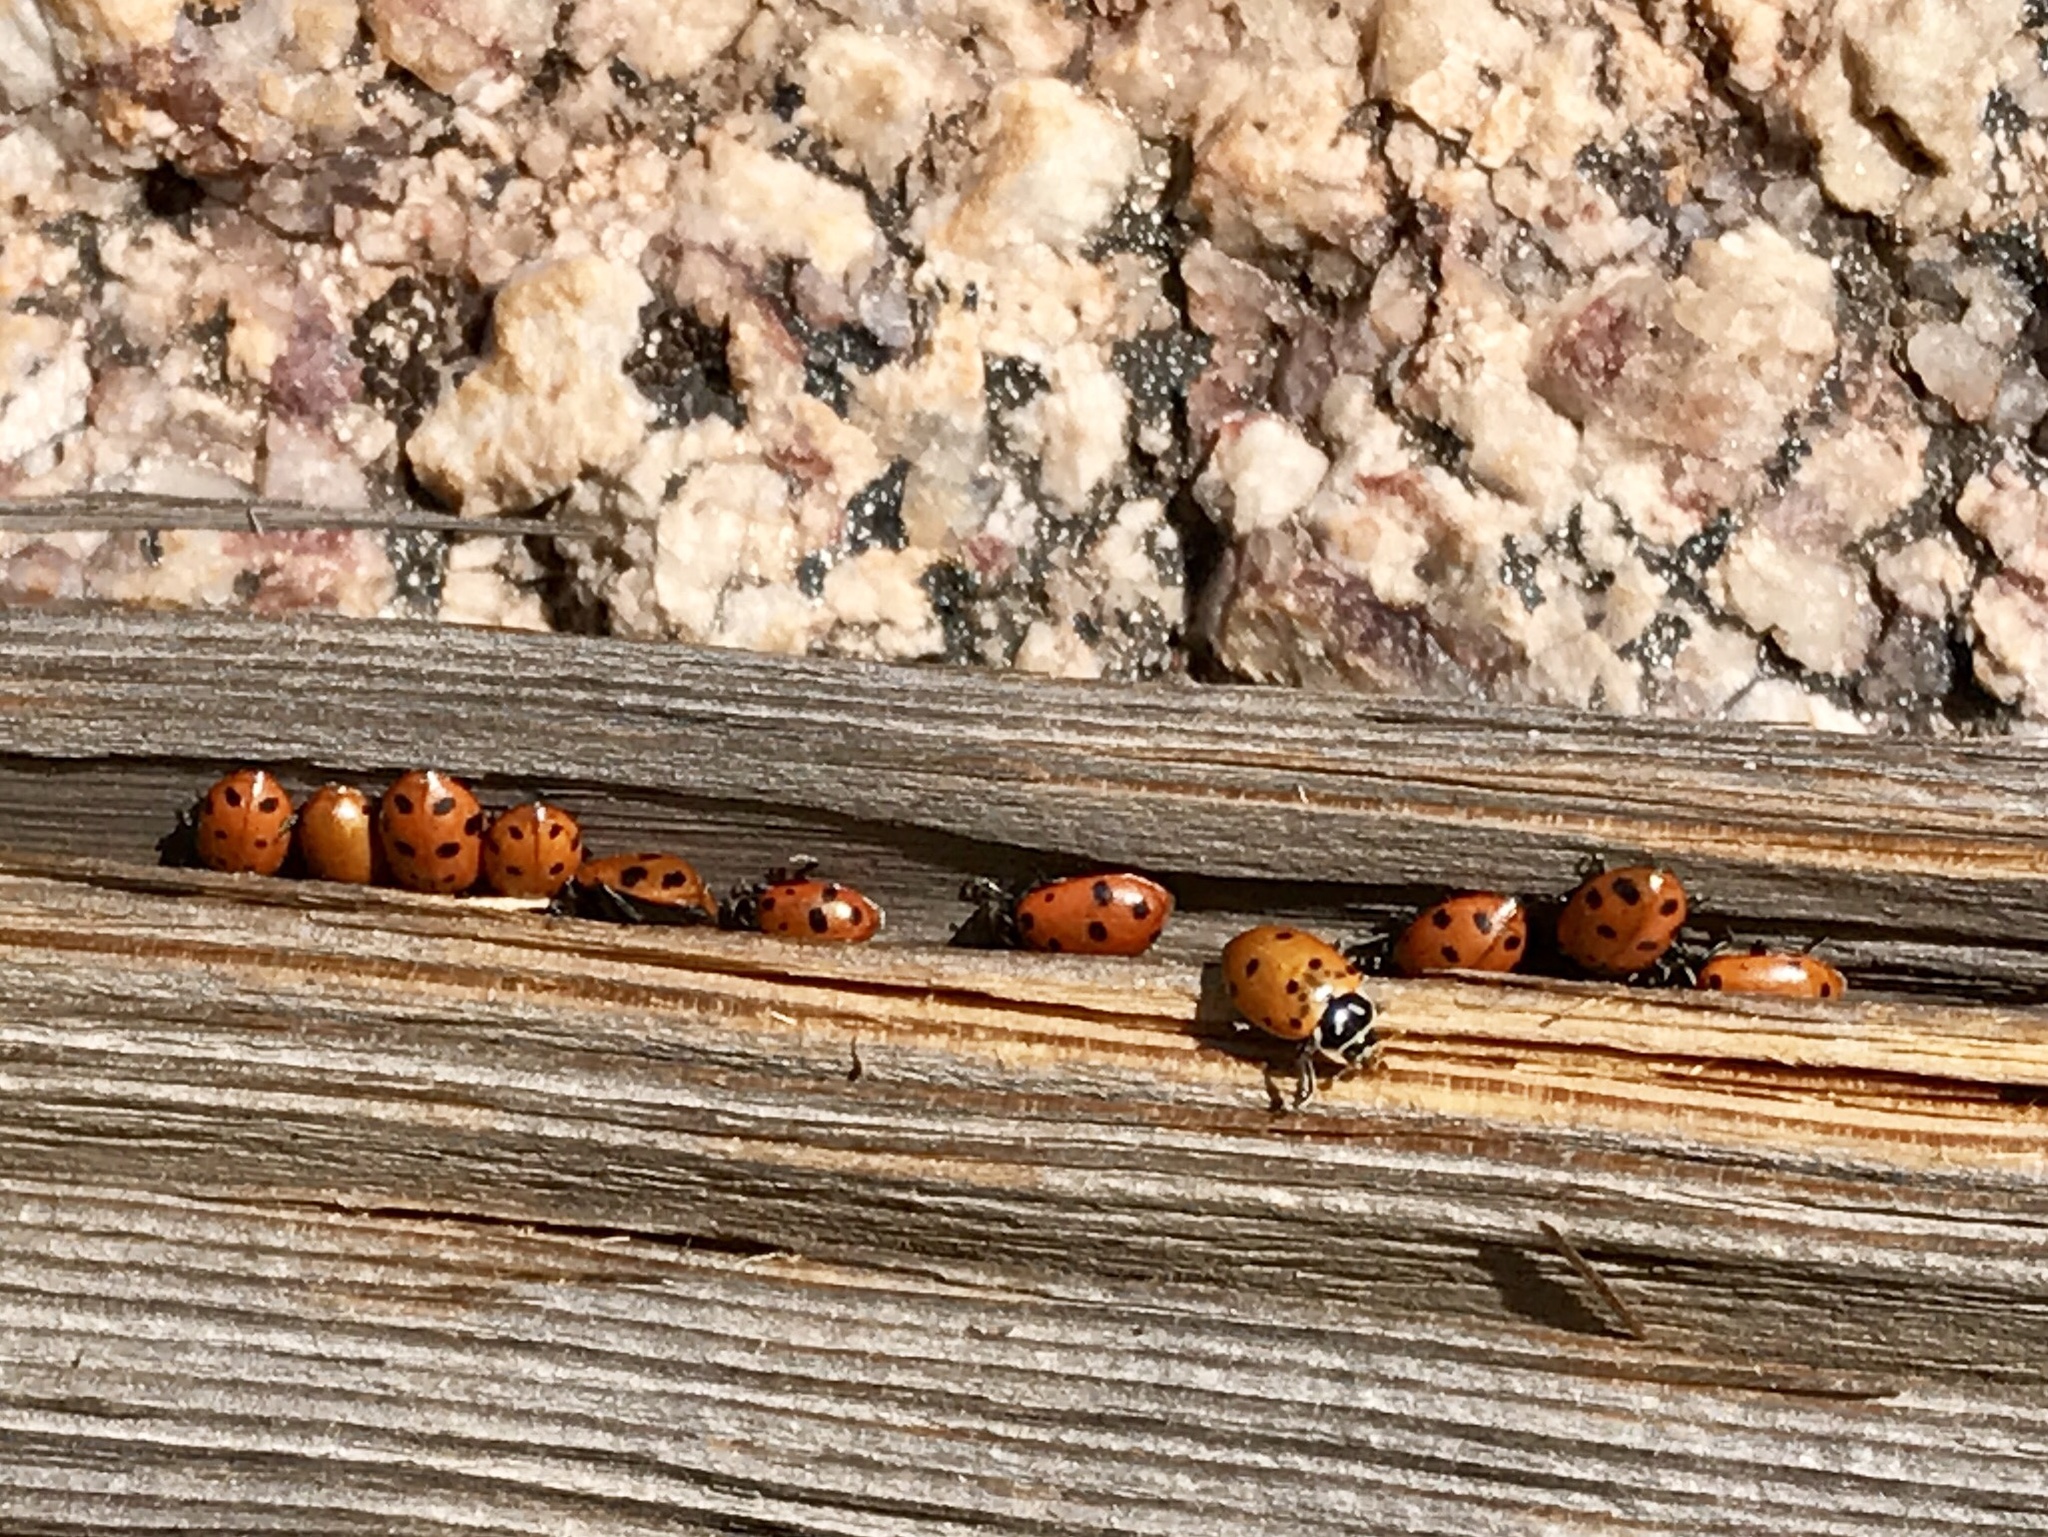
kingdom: Animalia
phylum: Arthropoda
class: Insecta
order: Coleoptera
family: Coccinellidae
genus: Hippodamia
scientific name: Hippodamia convergens
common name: Convergent lady beetle
